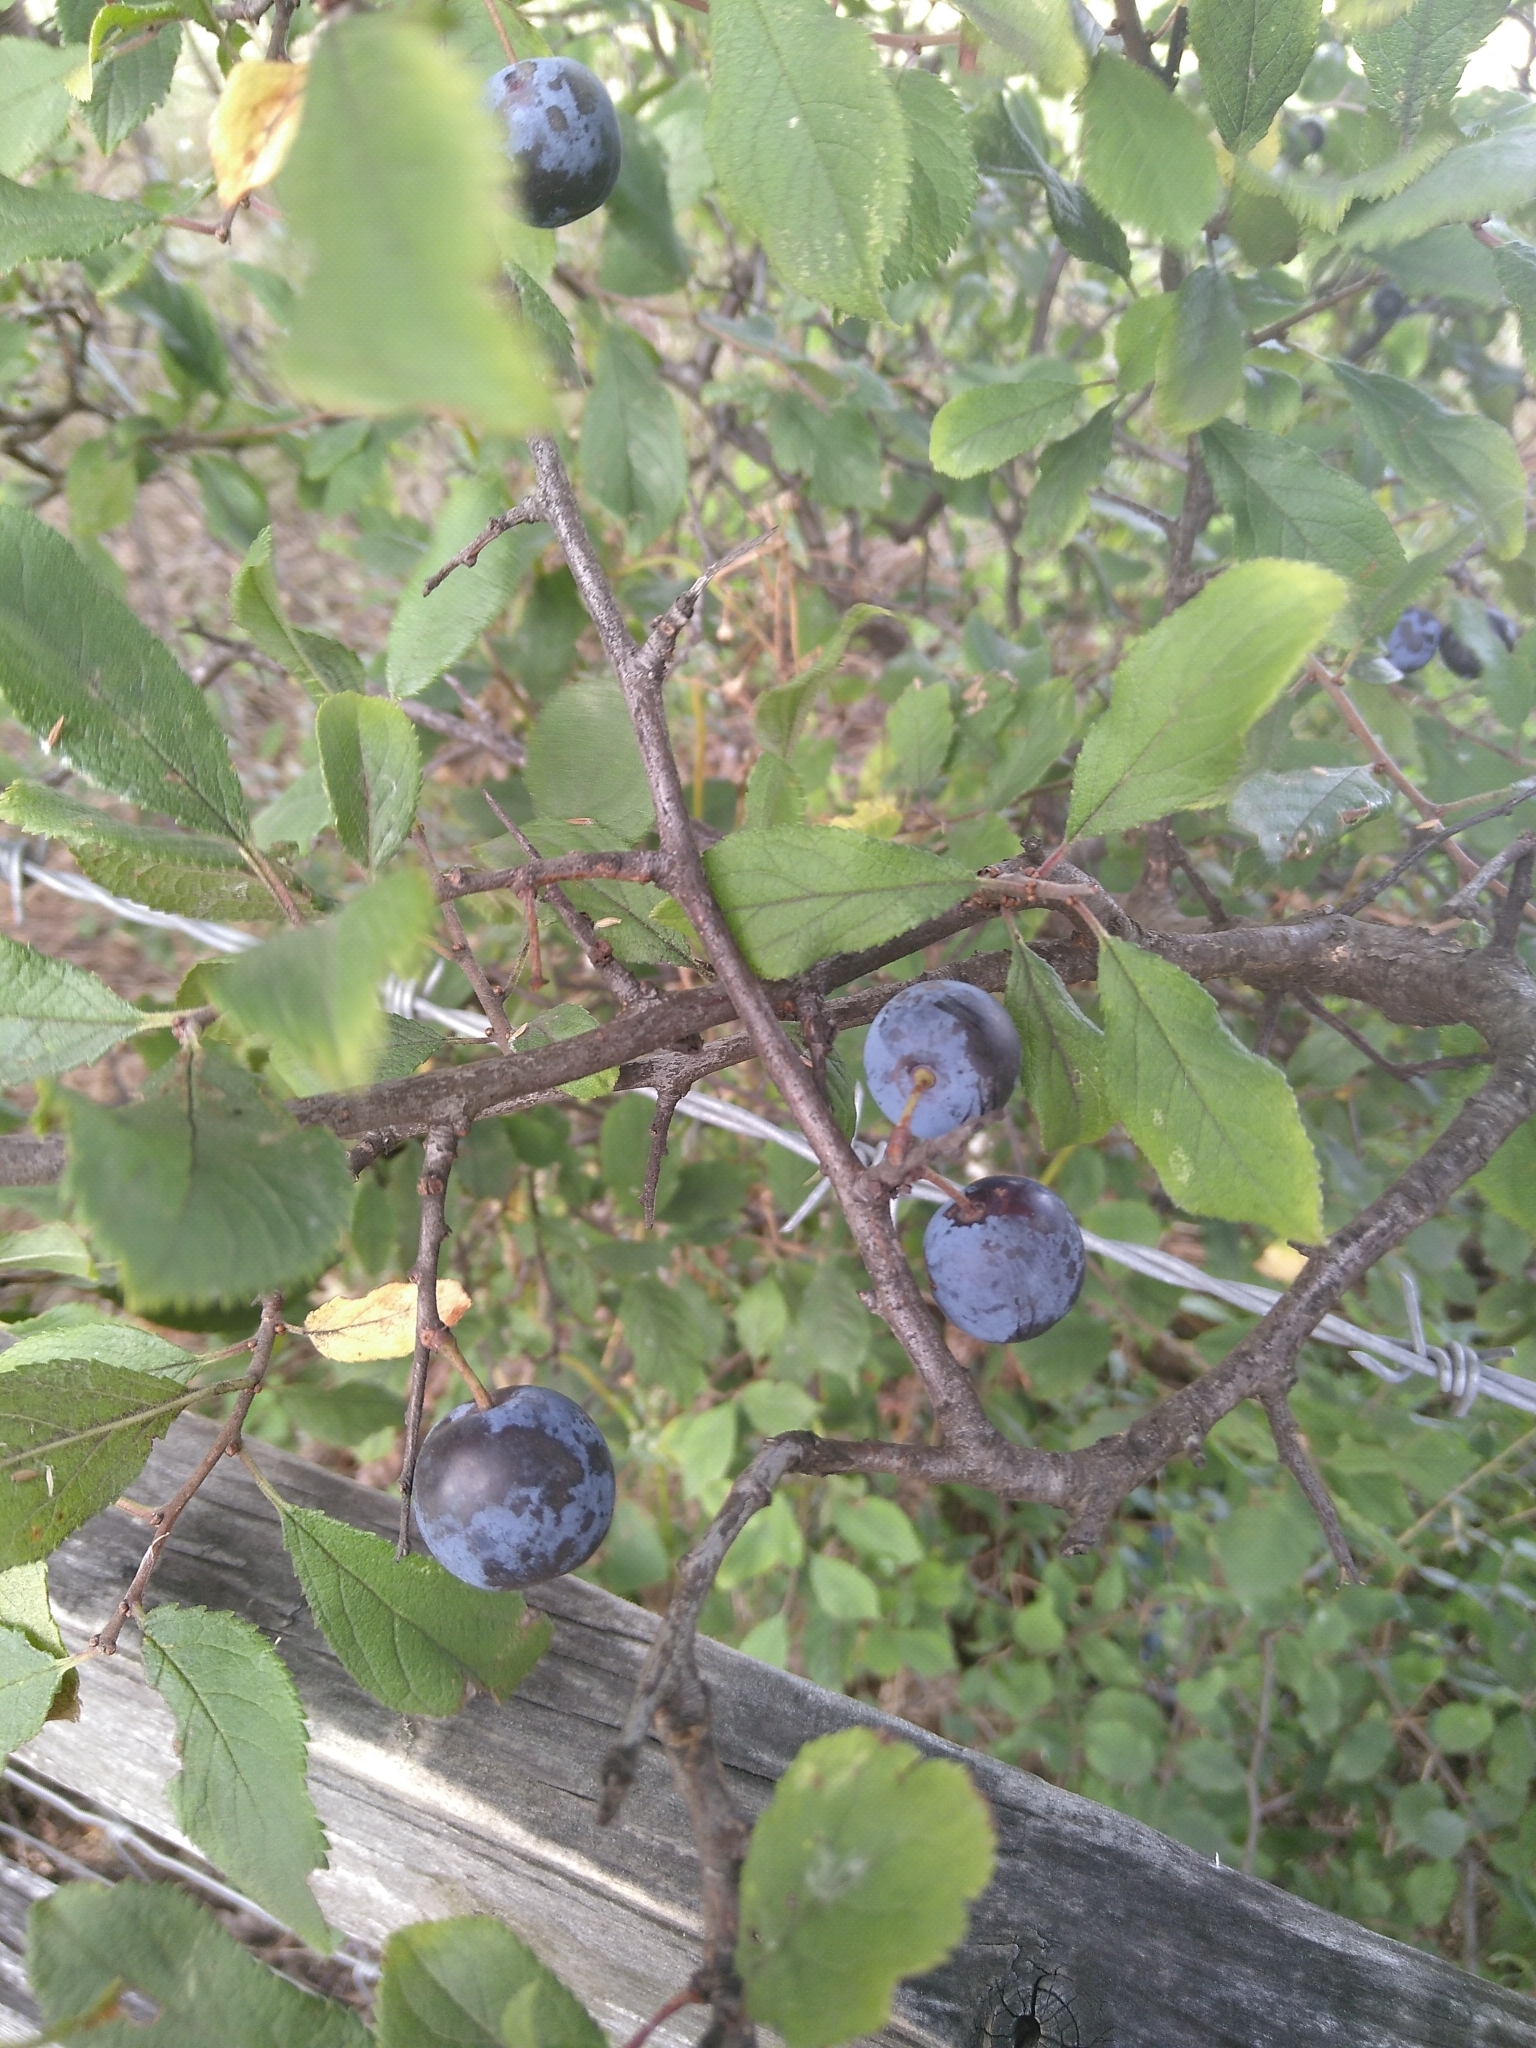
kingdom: Plantae
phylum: Tracheophyta
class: Magnoliopsida
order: Rosales
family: Rosaceae
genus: Prunus
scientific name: Prunus spinosa
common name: Blackthorn
